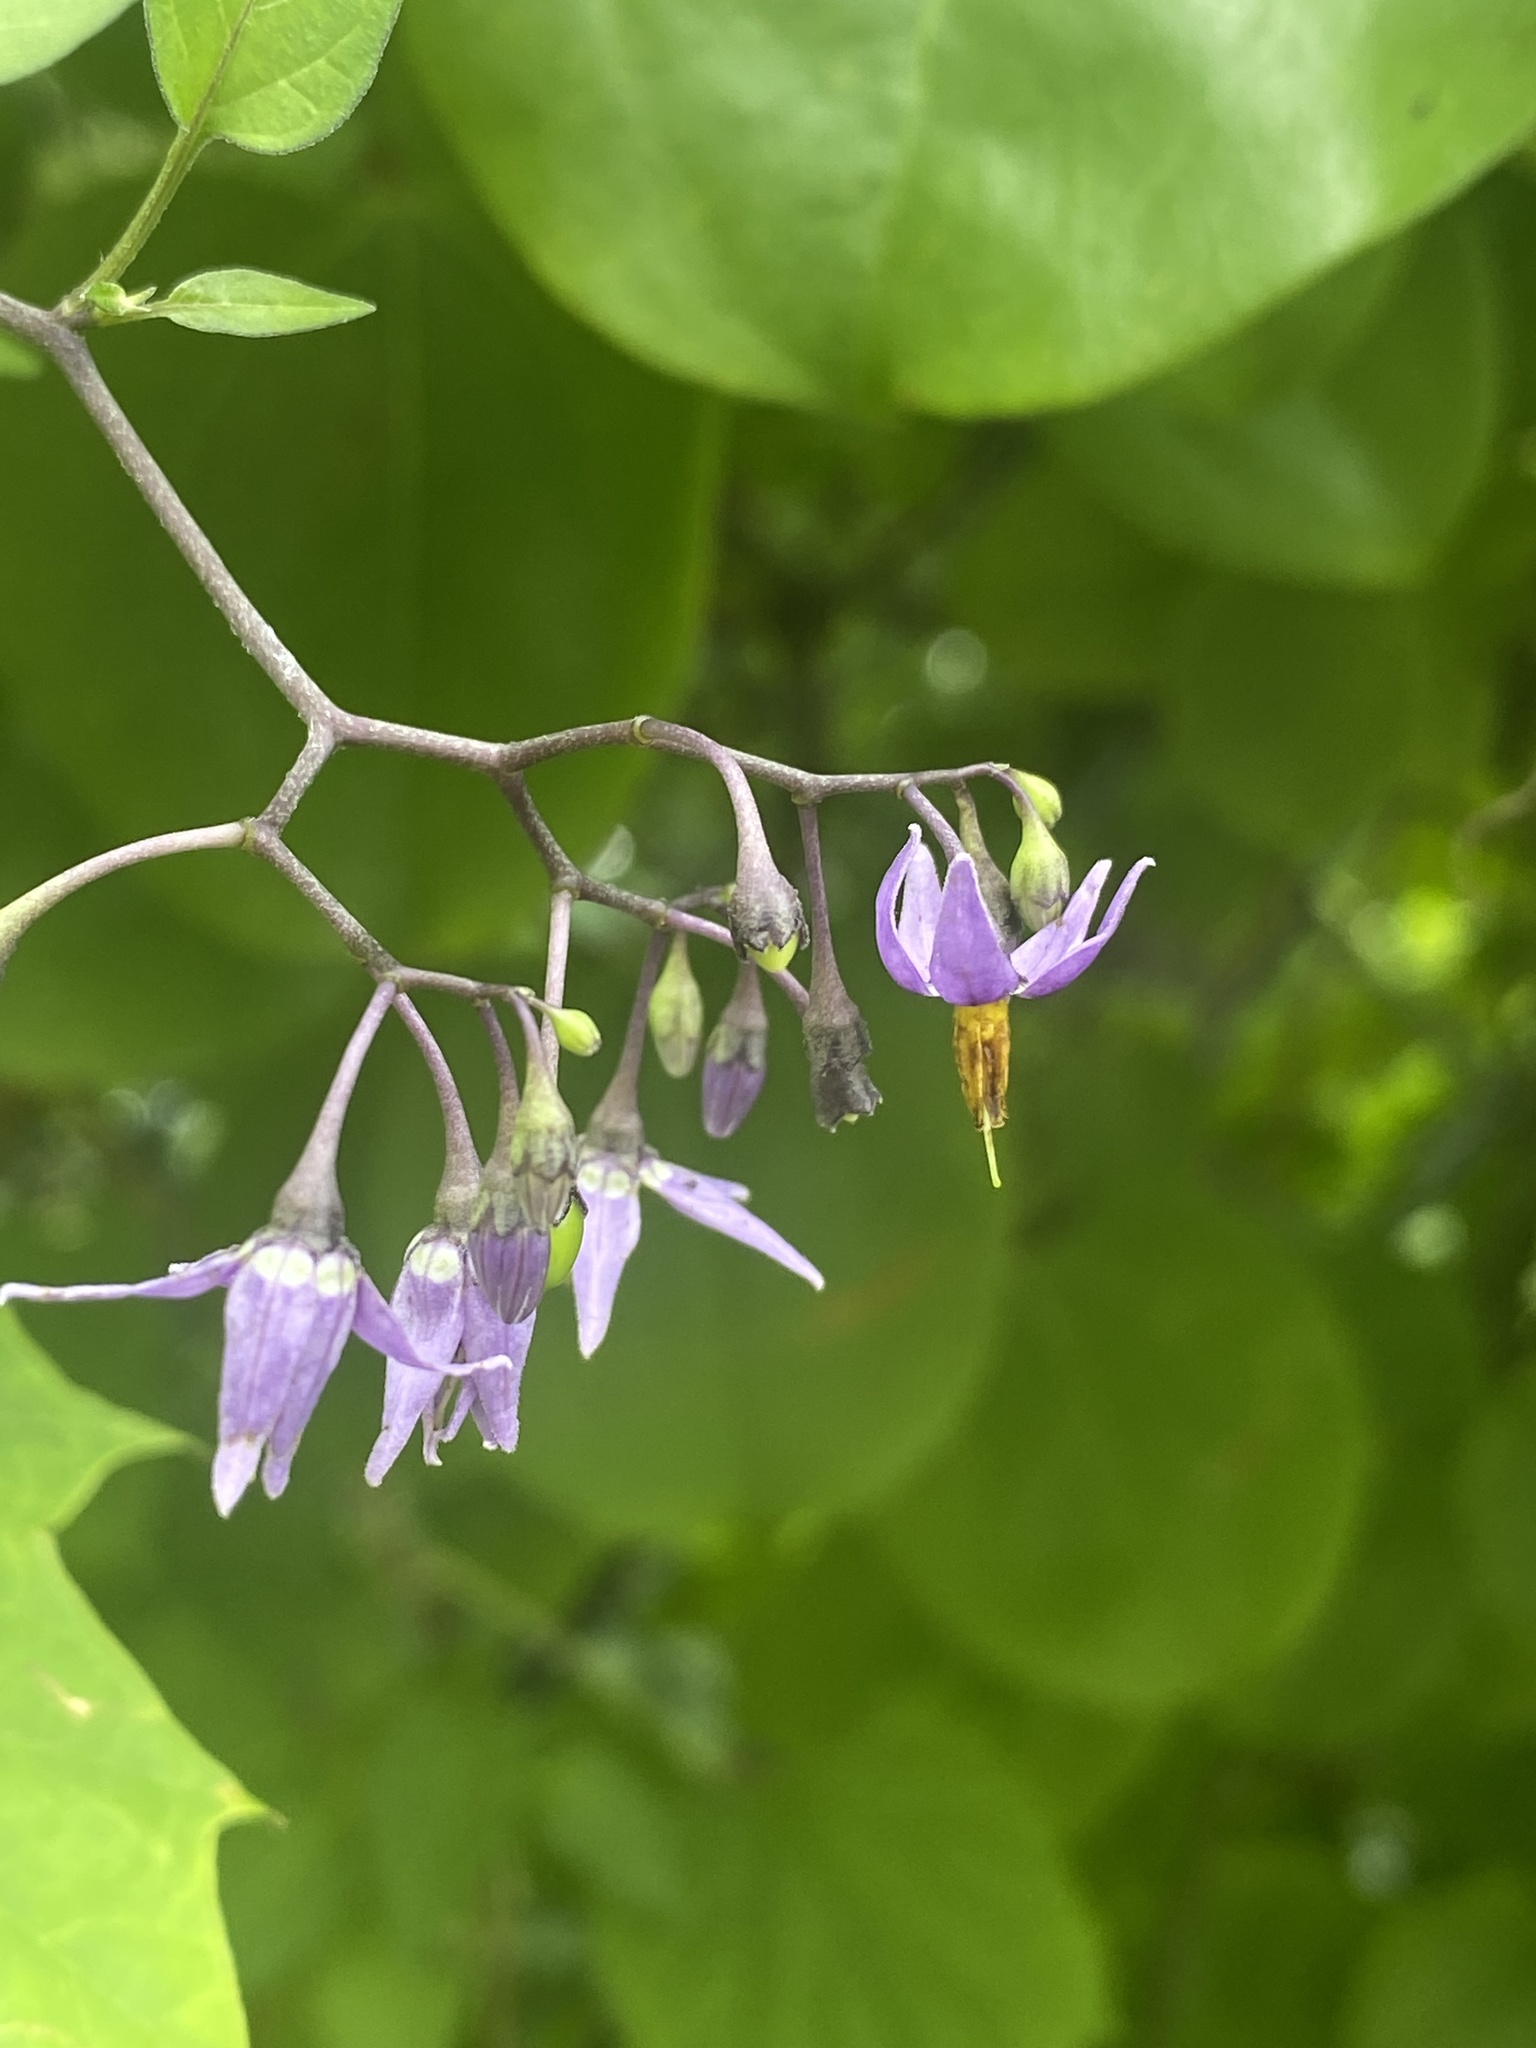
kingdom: Plantae
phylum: Tracheophyta
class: Magnoliopsida
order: Solanales
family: Solanaceae
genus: Solanum
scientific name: Solanum dulcamara
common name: Climbing nightshade
